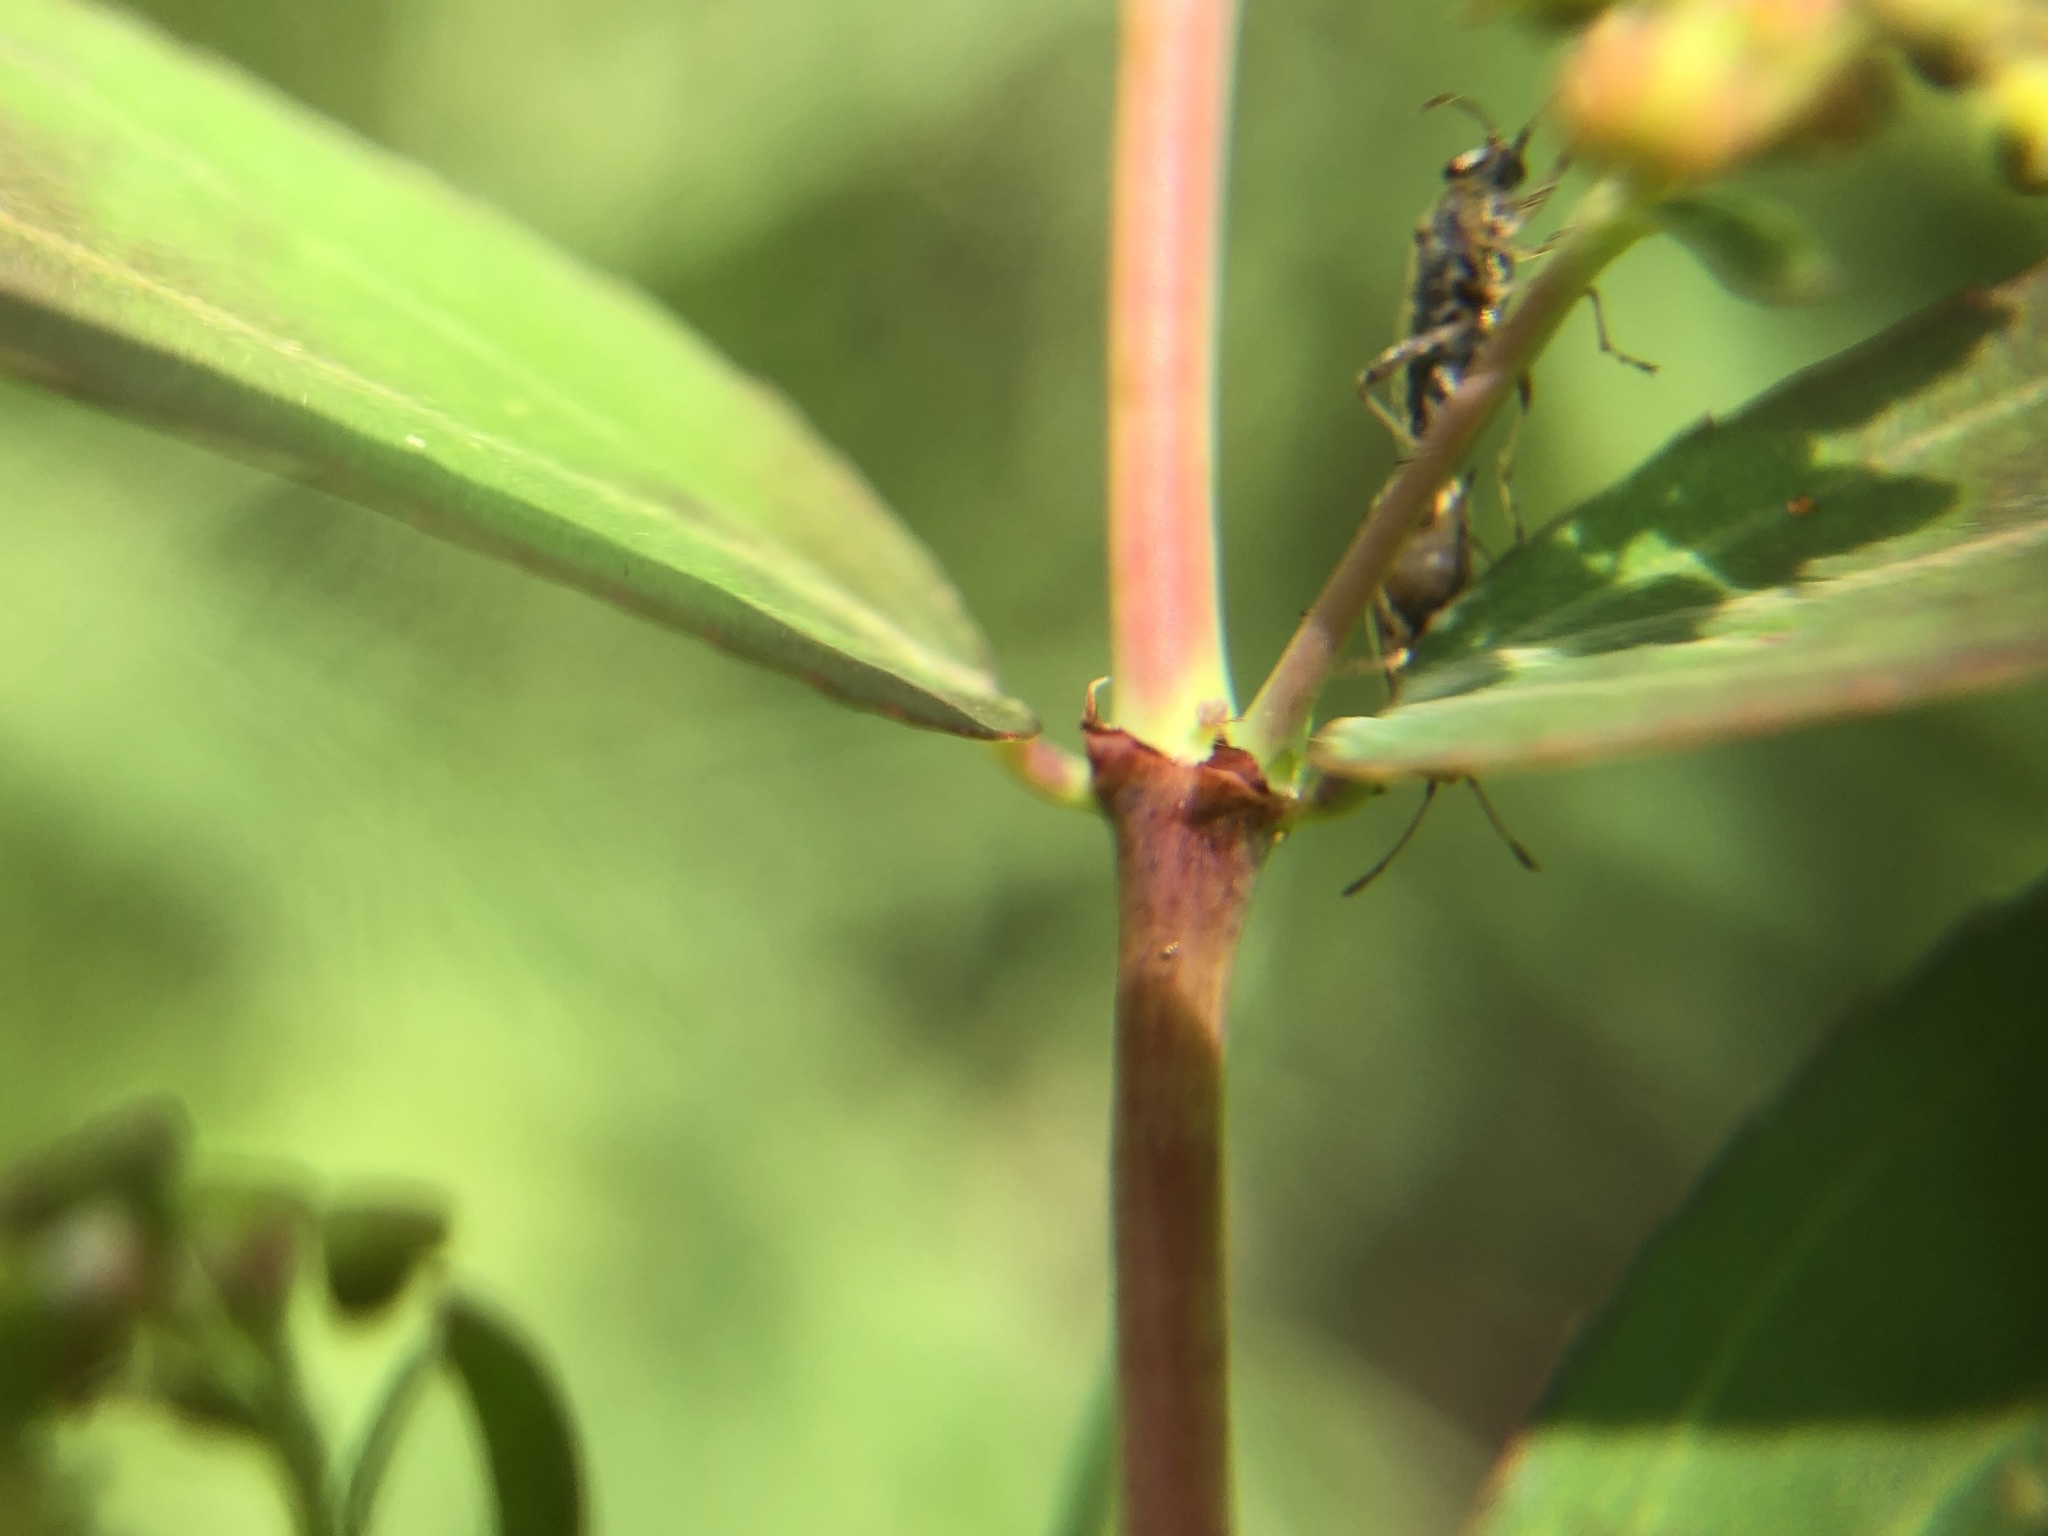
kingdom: Plantae
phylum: Tracheophyta
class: Magnoliopsida
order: Malpighiales
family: Euphorbiaceae
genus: Euphorbia
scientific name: Euphorbia hypericifolia
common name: Graceful sandmat
